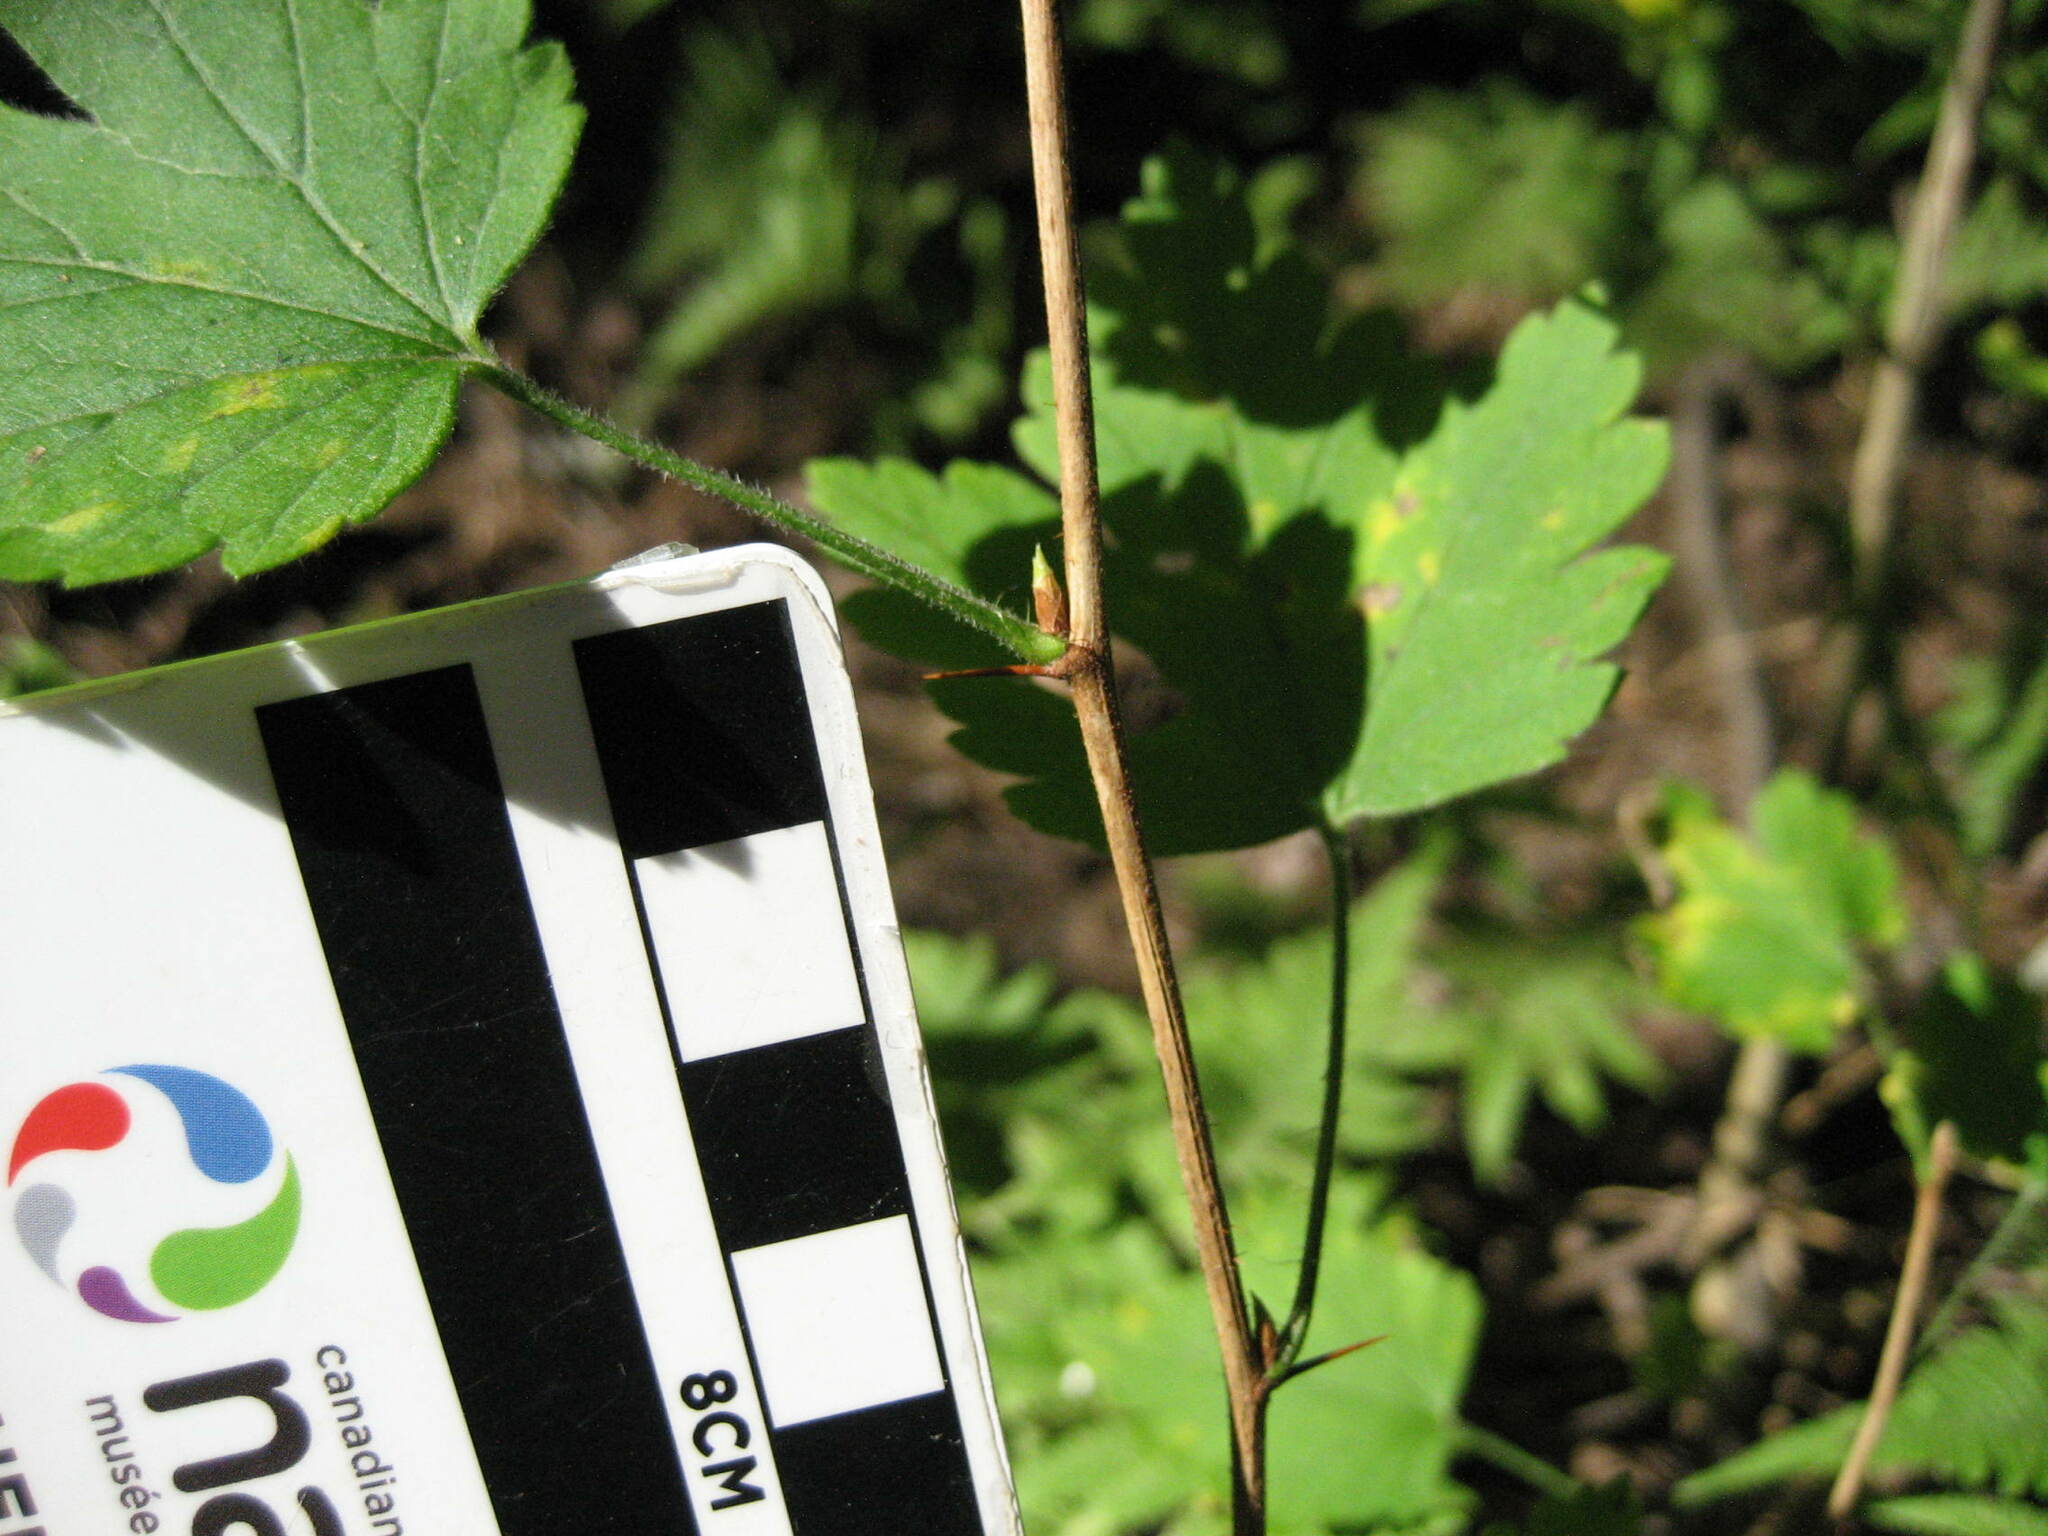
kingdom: Plantae
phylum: Tracheophyta
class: Magnoliopsida
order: Saxifragales
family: Grossulariaceae
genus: Ribes
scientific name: Ribes cynosbati
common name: American gooseberry
